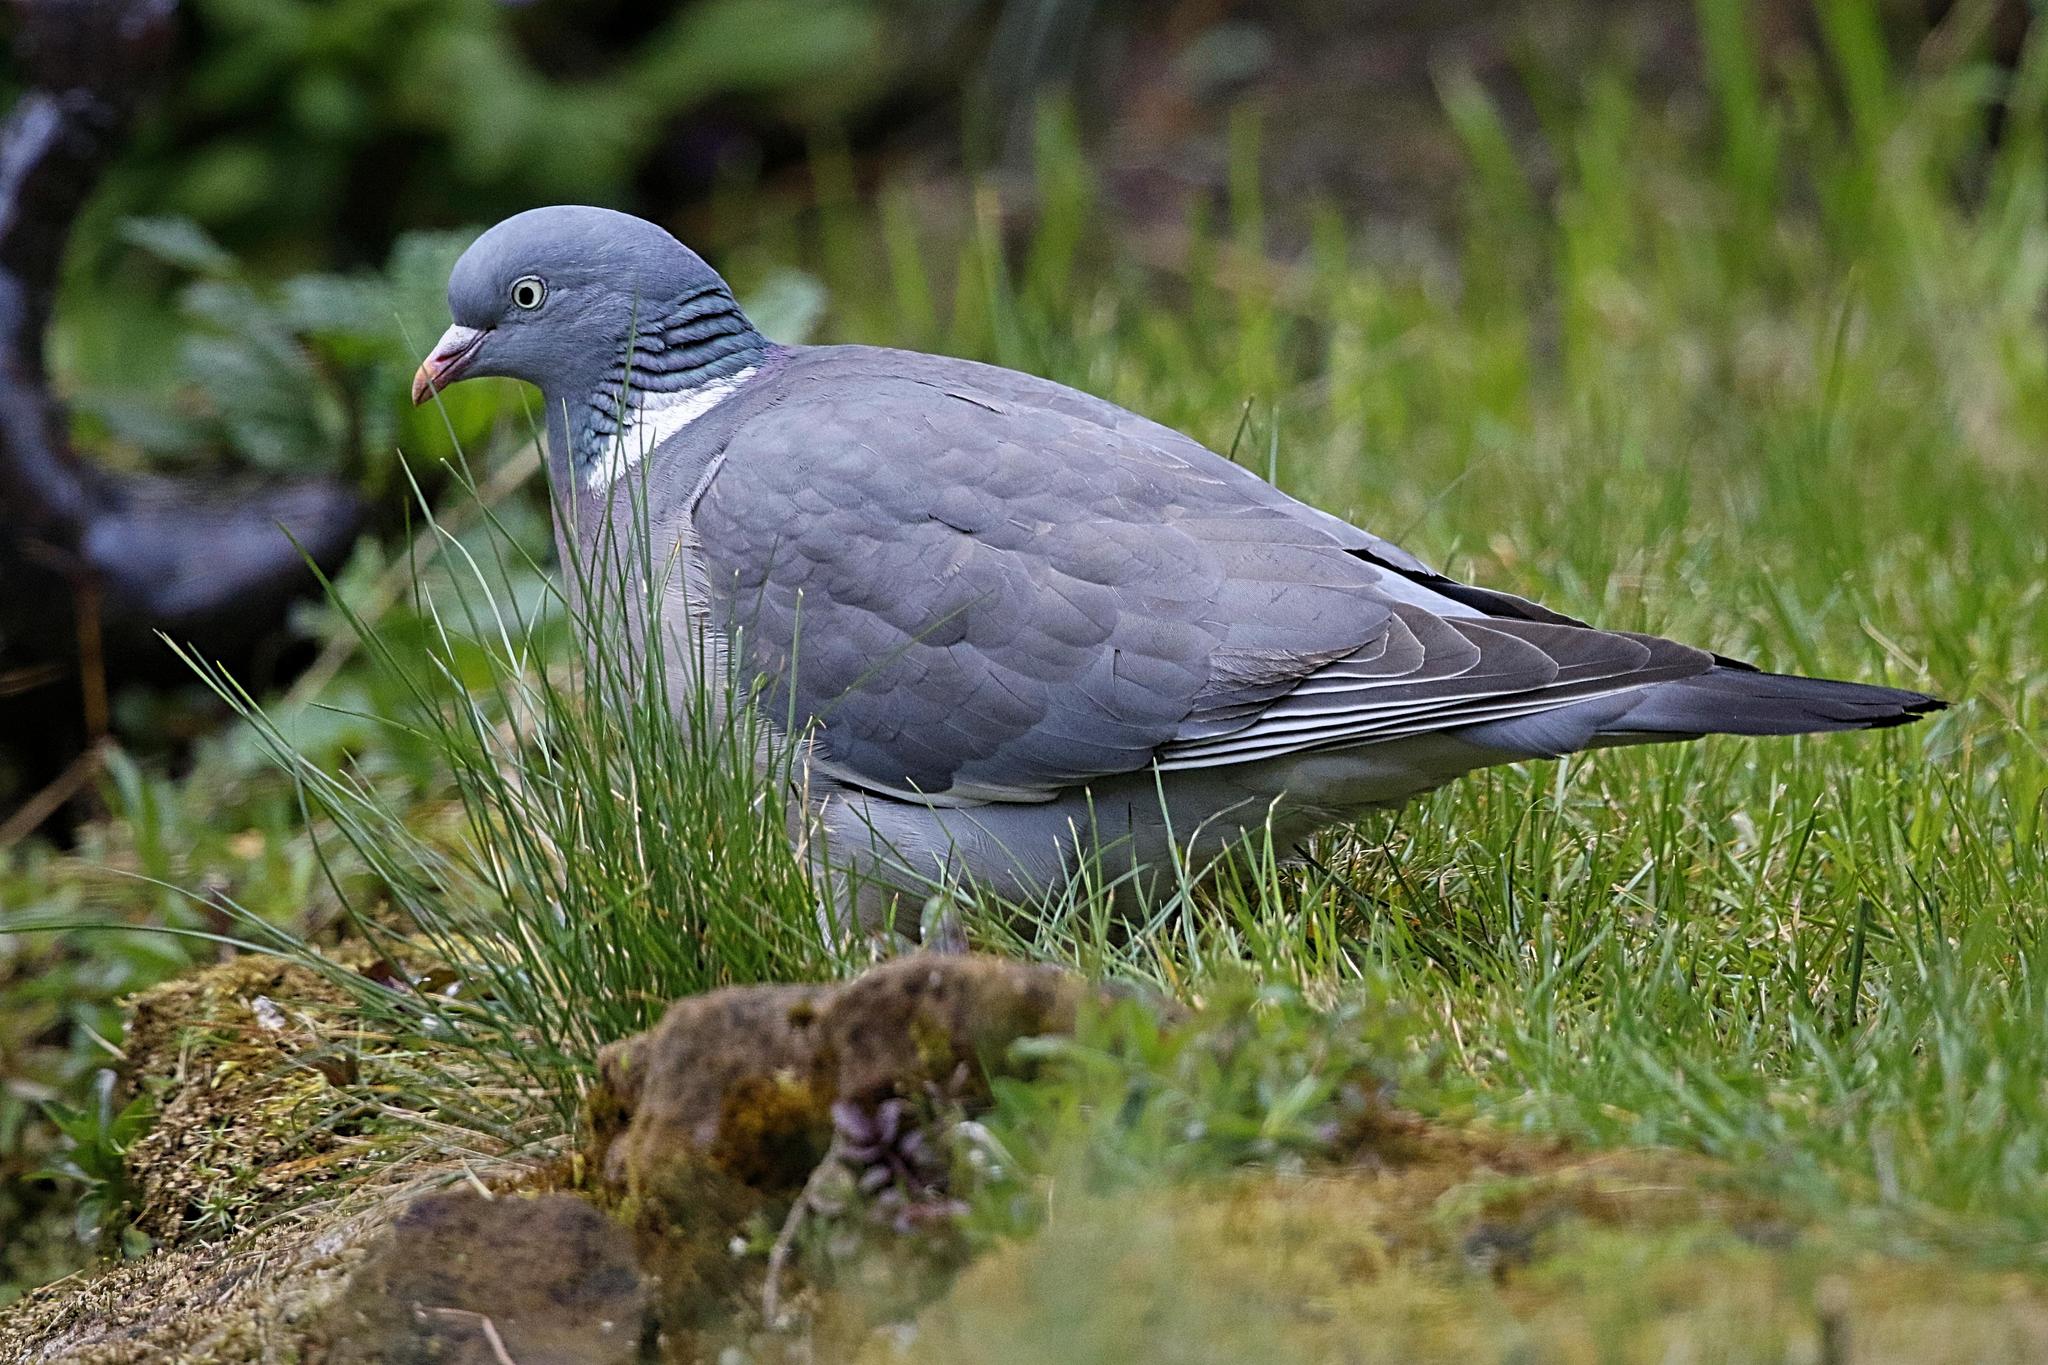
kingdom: Animalia
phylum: Chordata
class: Aves
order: Columbiformes
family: Columbidae
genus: Columba
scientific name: Columba palumbus
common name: Common wood pigeon
